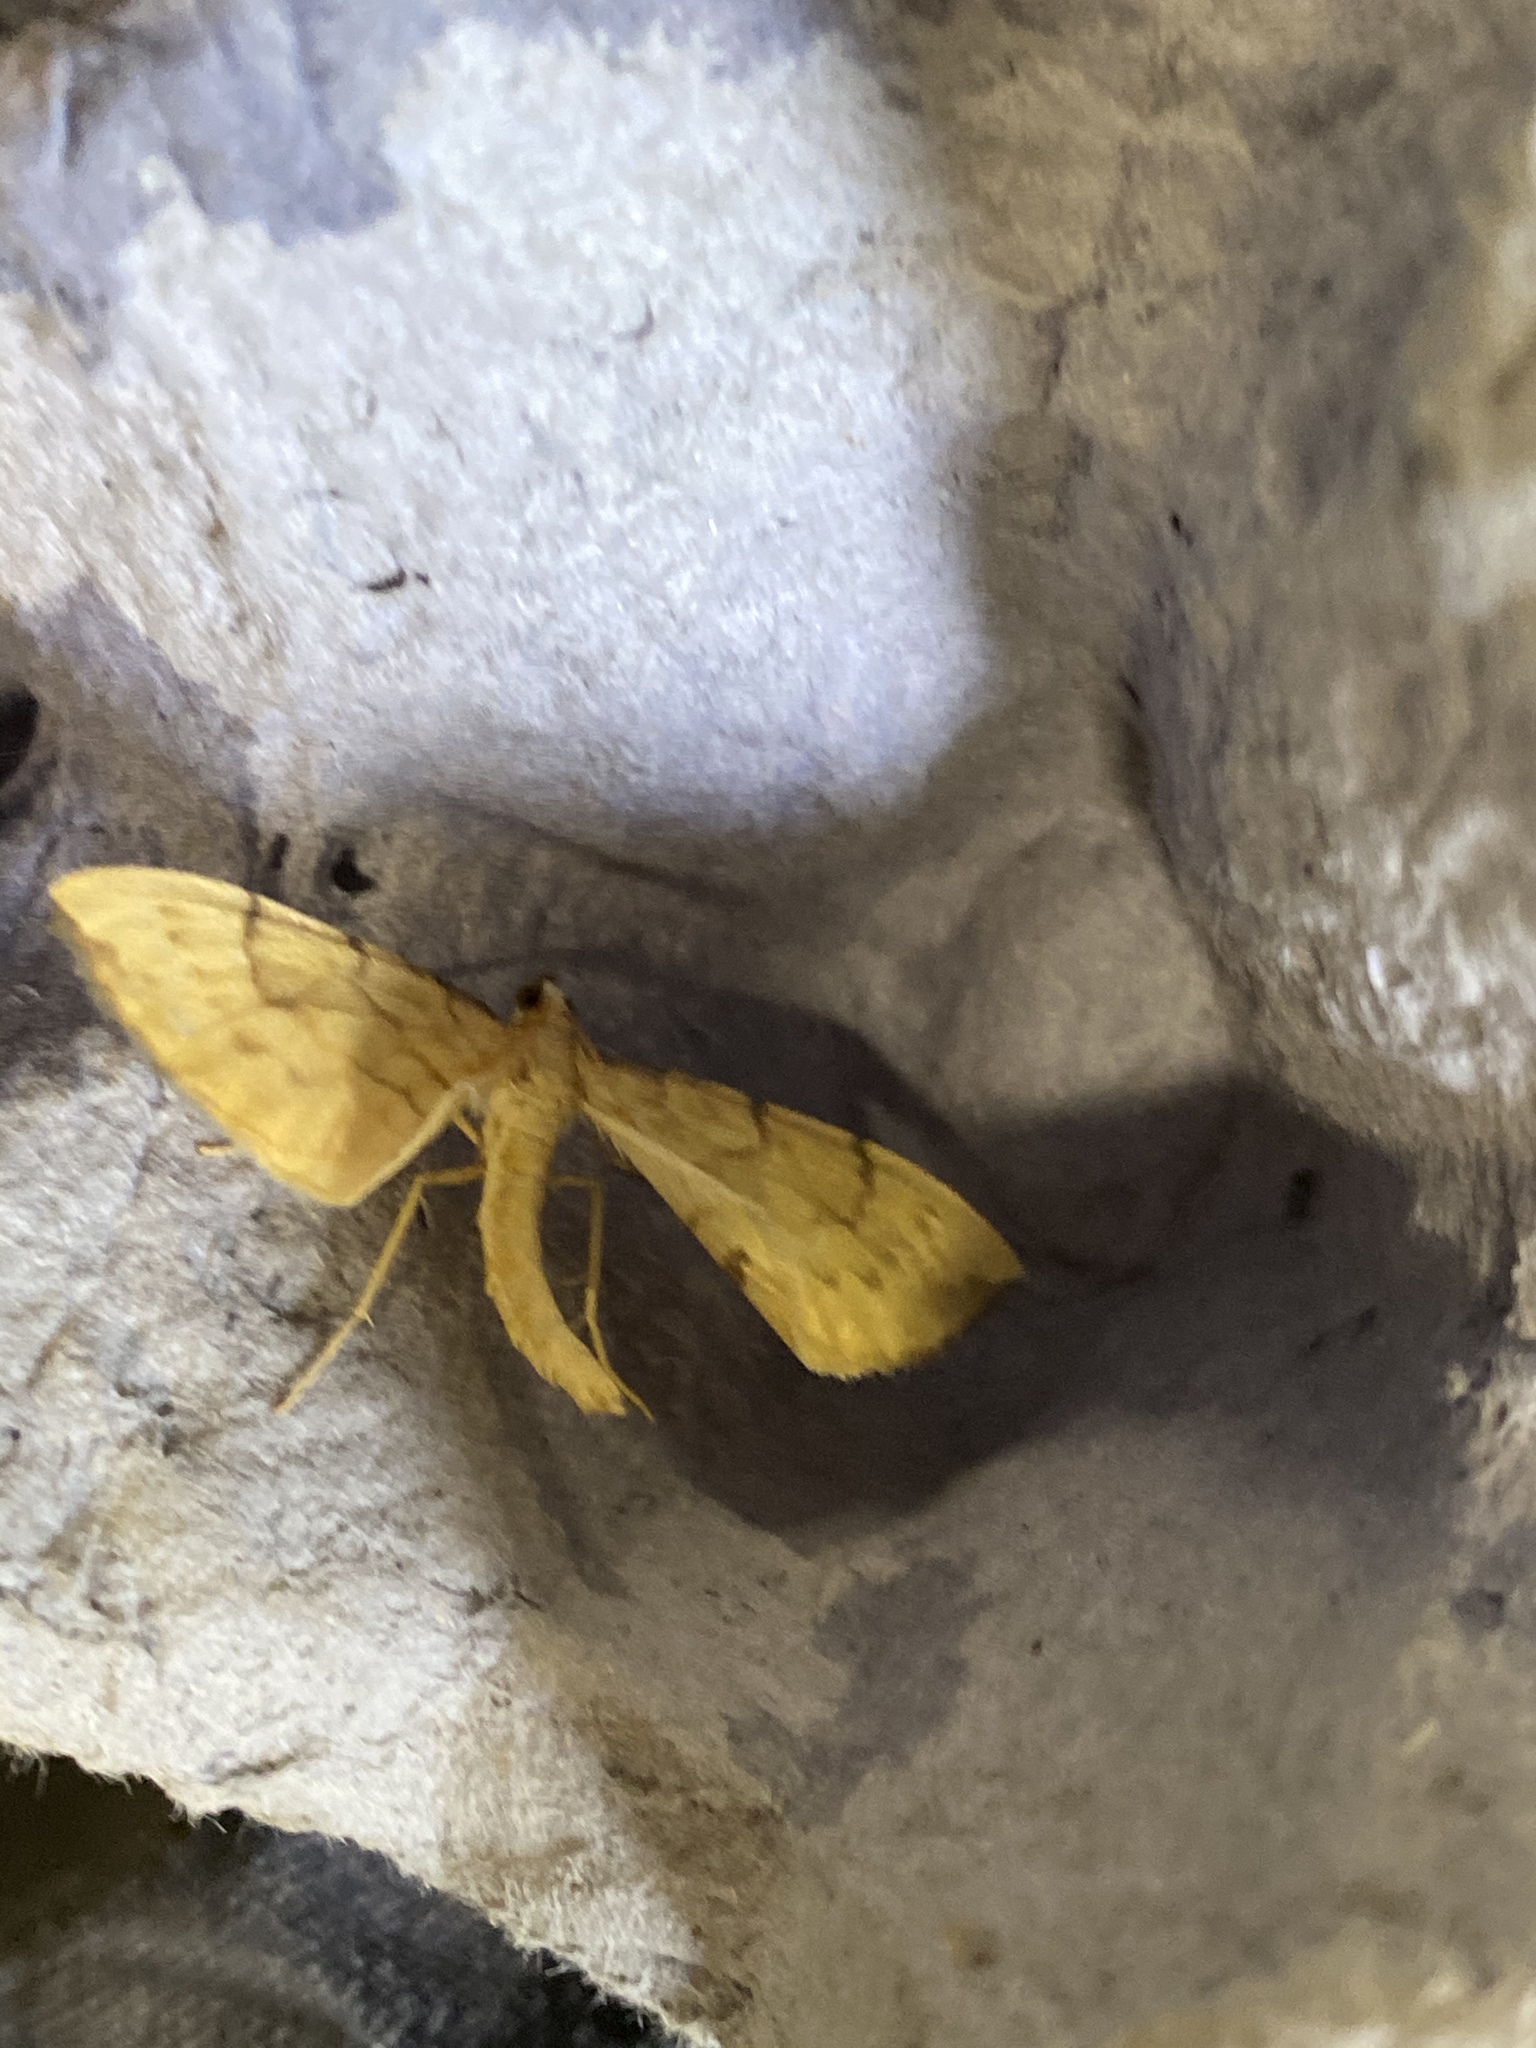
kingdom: Animalia
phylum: Arthropoda
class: Insecta
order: Lepidoptera
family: Geometridae
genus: Eulithis
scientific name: Eulithis pyraliata
